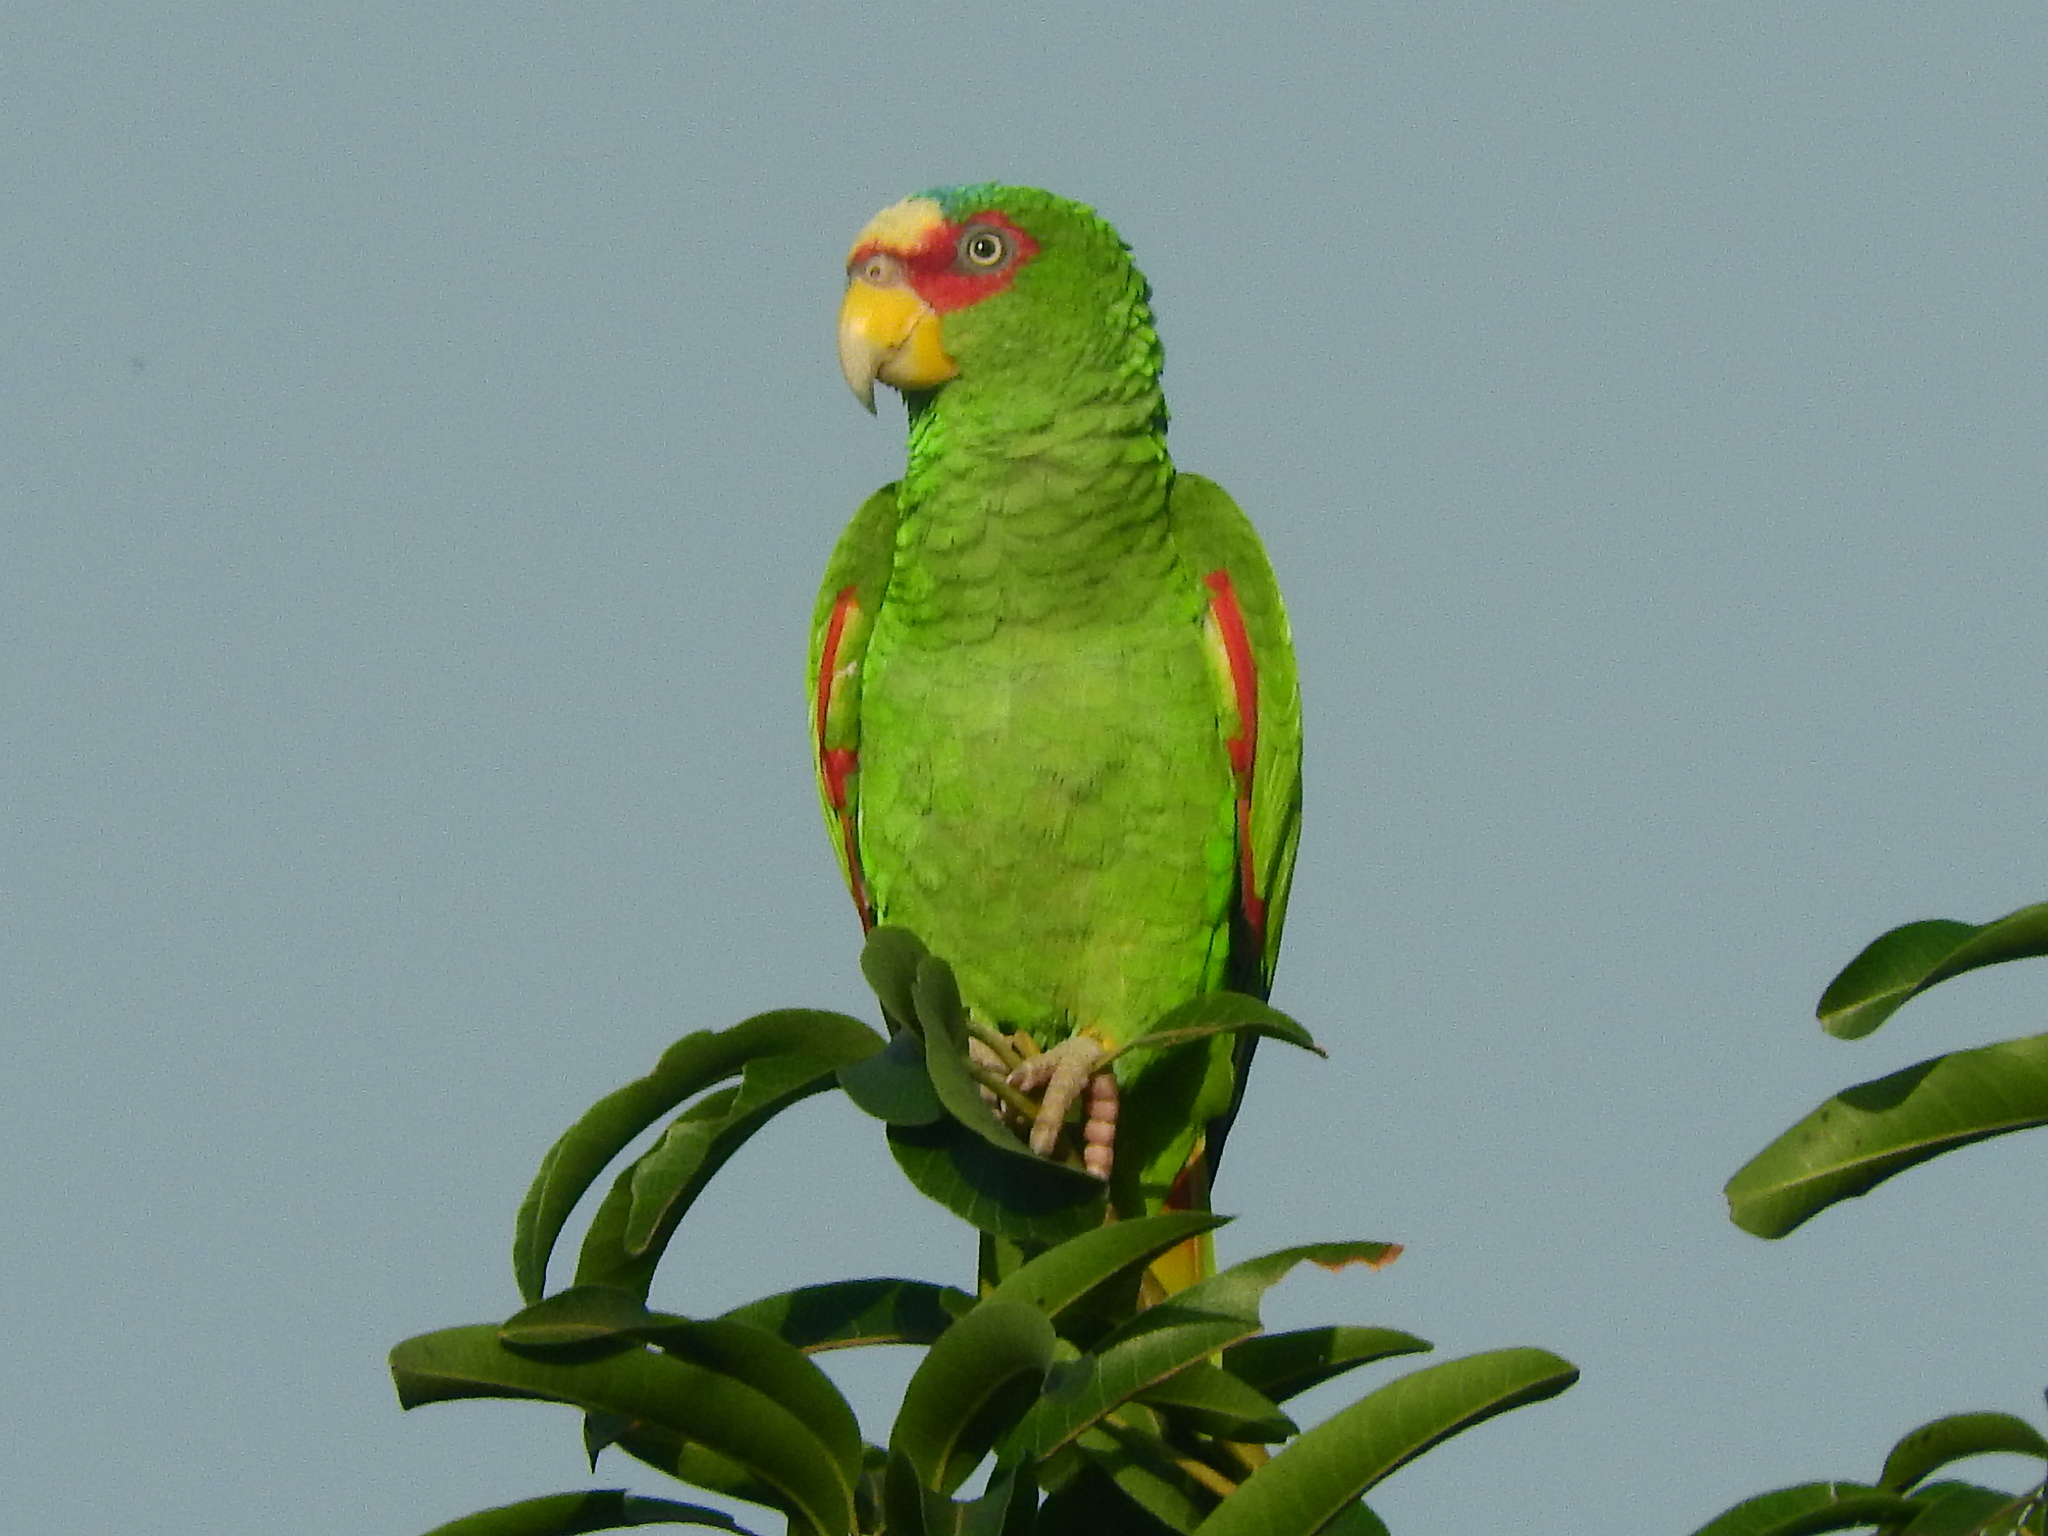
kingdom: Animalia
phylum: Chordata
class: Aves
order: Psittaciformes
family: Psittacidae
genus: Amazona
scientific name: Amazona albifrons
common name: White-fronted amazon
